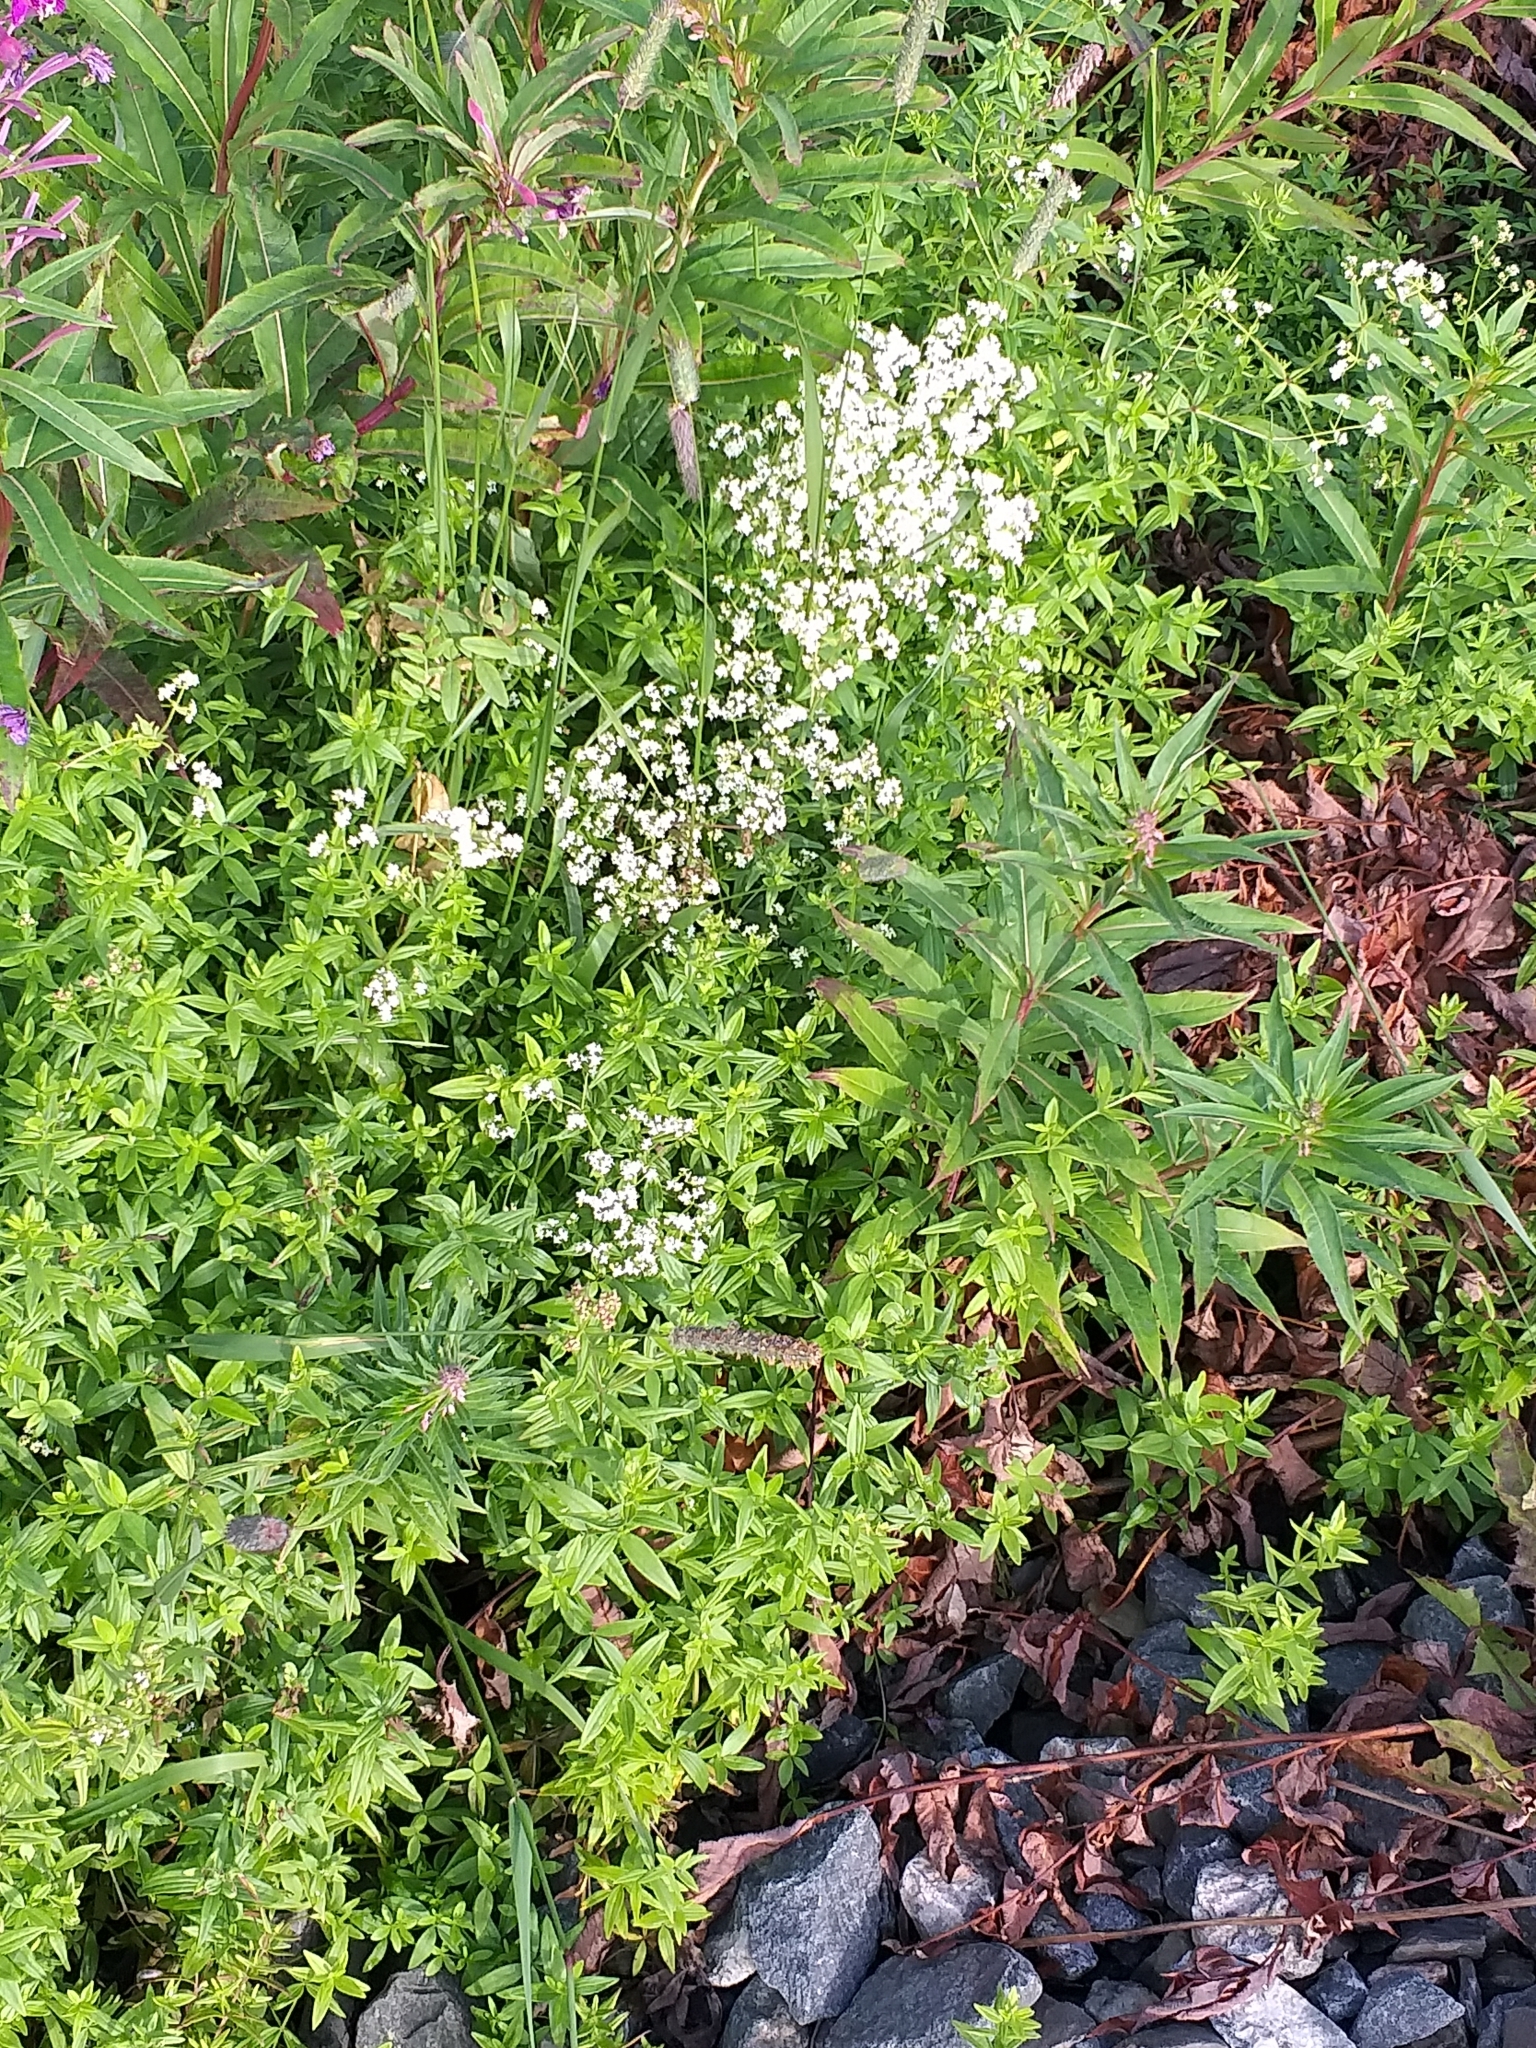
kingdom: Plantae
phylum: Tracheophyta
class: Magnoliopsida
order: Gentianales
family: Rubiaceae
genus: Galium
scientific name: Galium boreale
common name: Northern bedstraw
